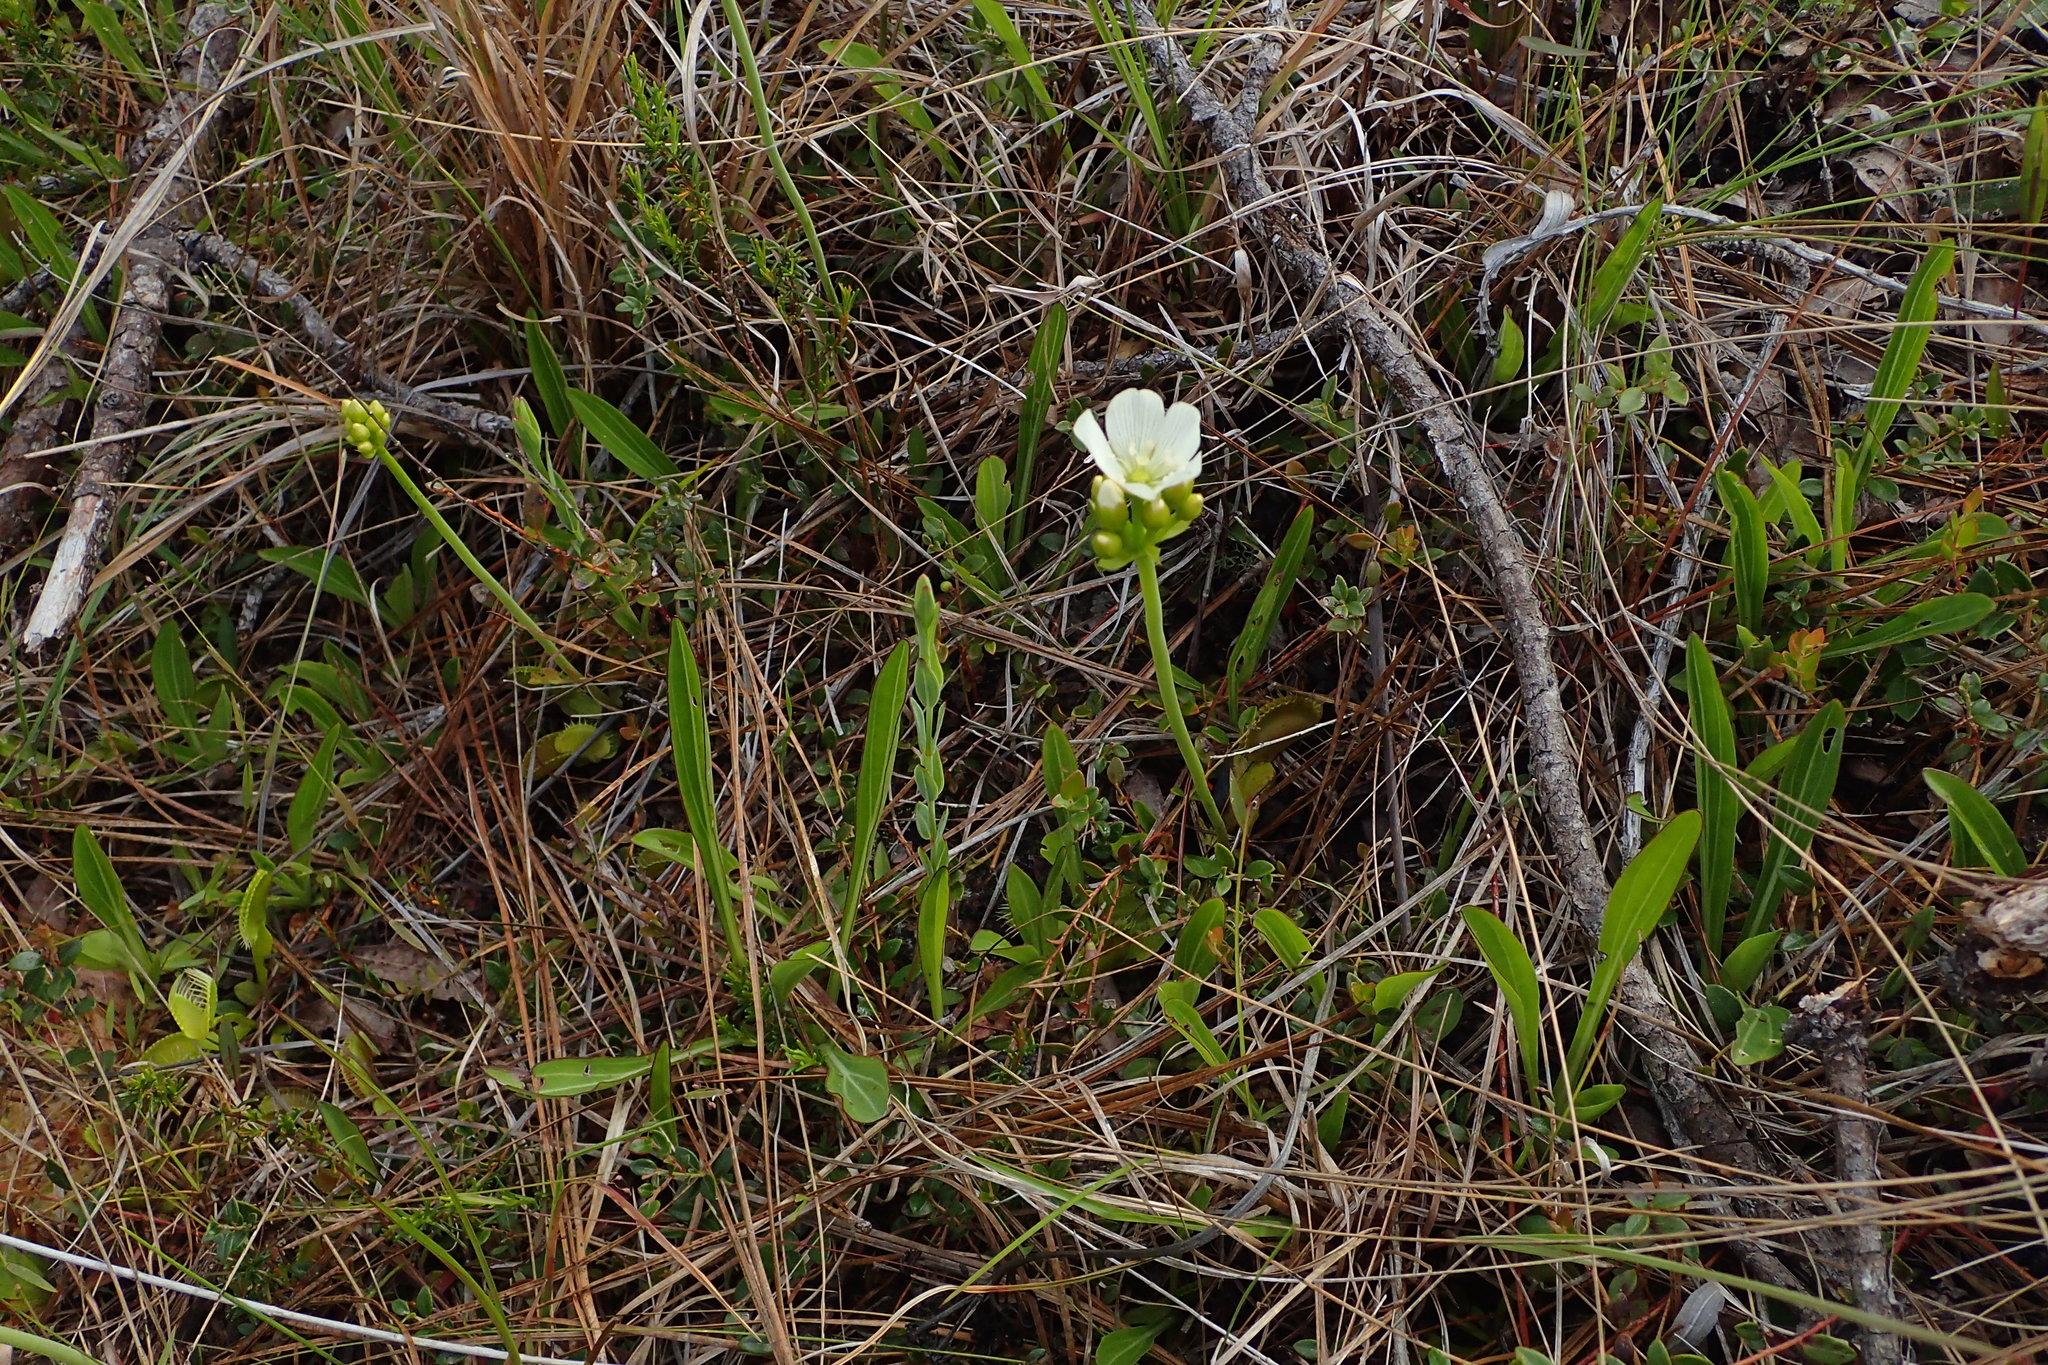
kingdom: Plantae
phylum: Tracheophyta
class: Magnoliopsida
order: Caryophyllales
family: Droseraceae
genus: Dionaea
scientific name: Dionaea muscipula
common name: Venus flytrap
